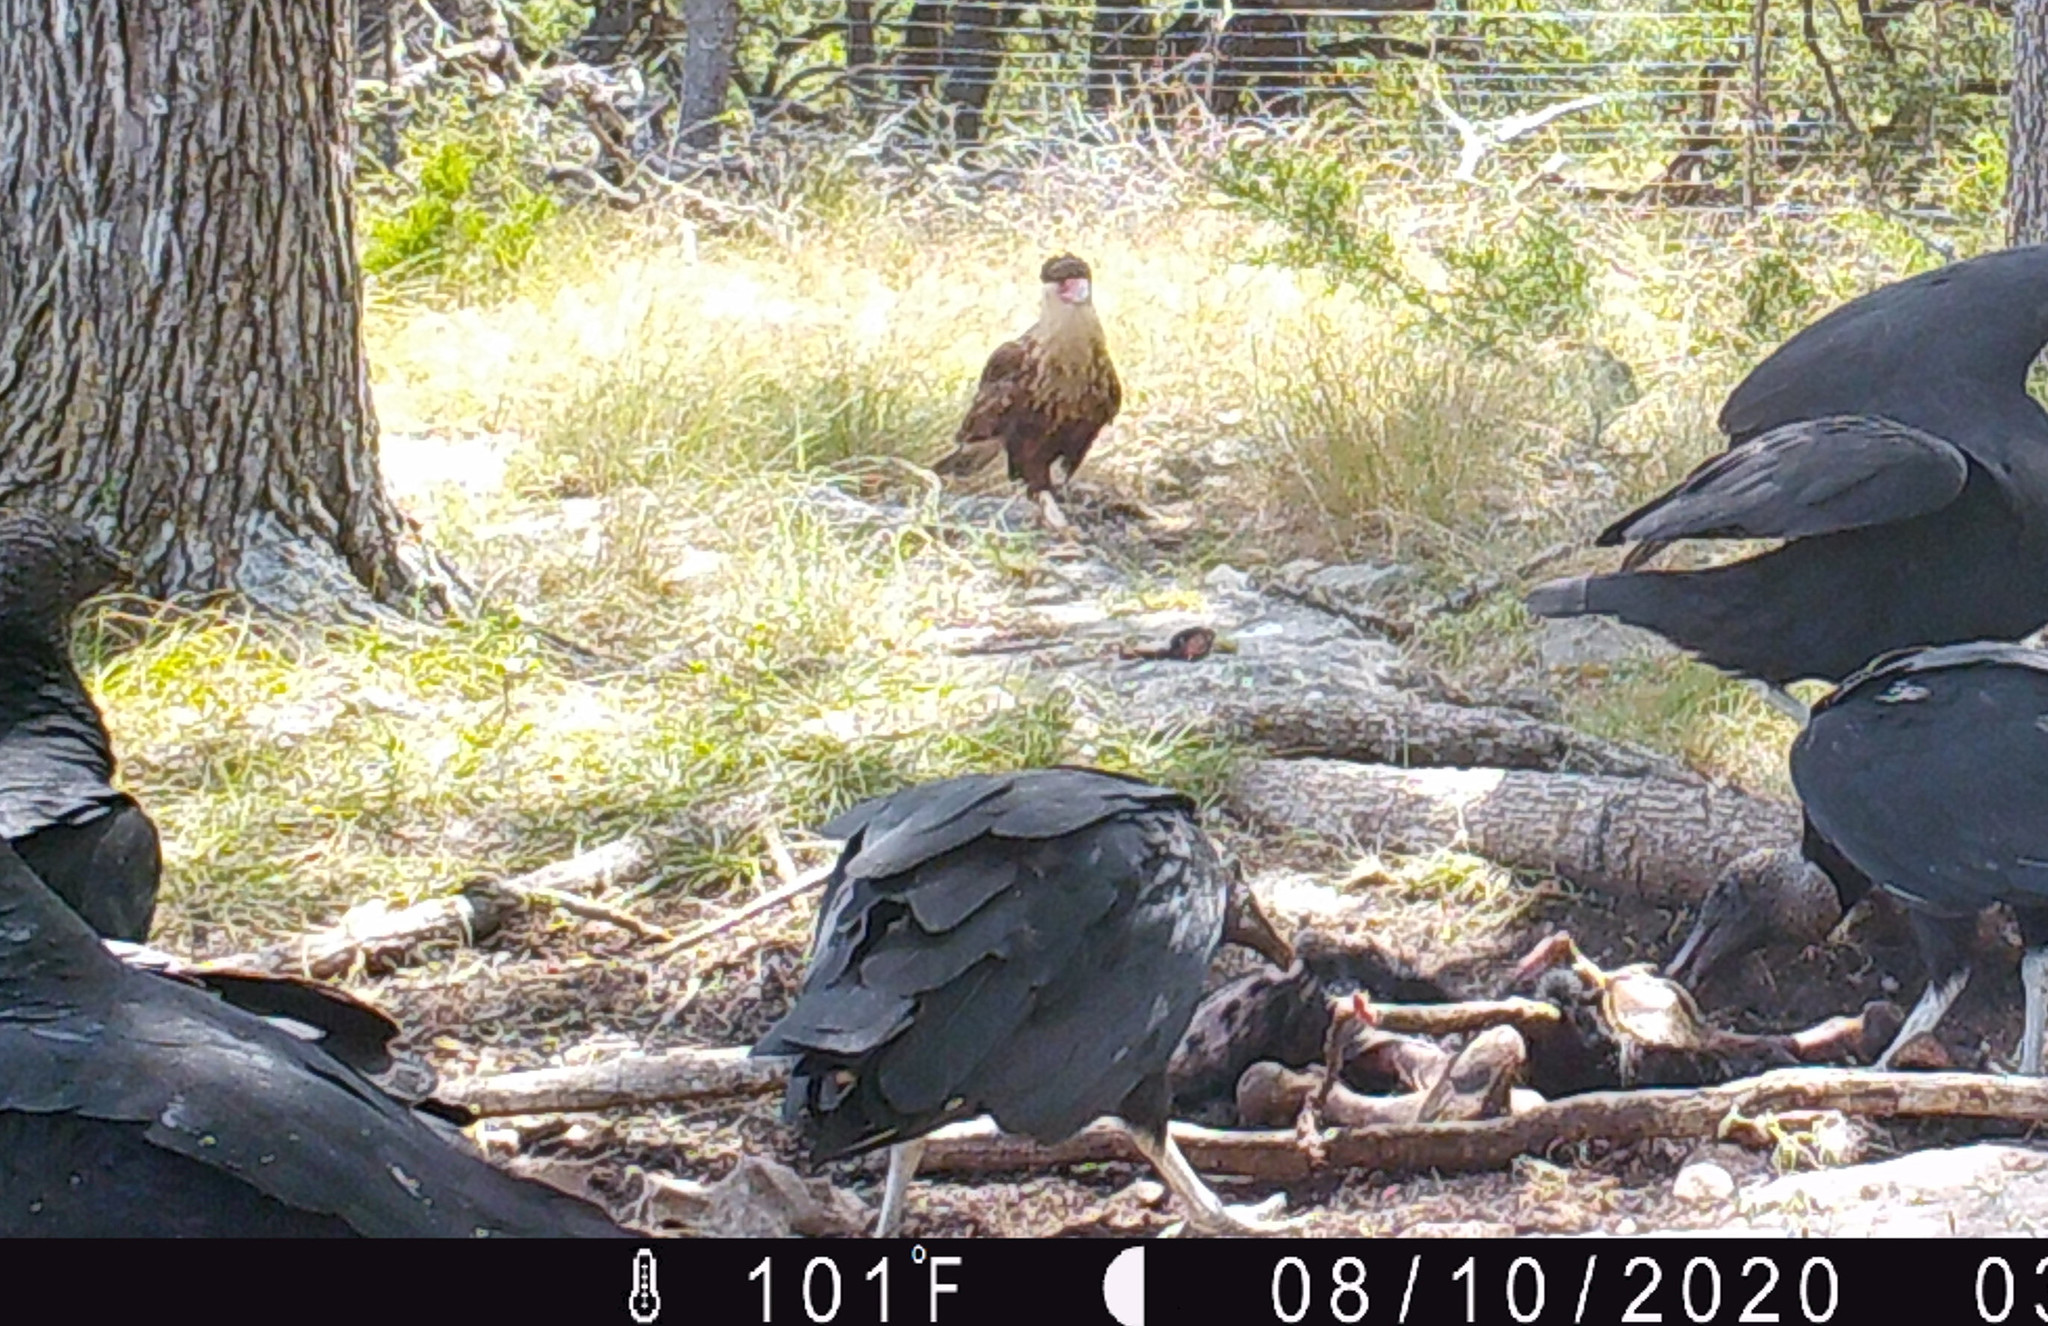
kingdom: Animalia
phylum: Chordata
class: Aves
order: Falconiformes
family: Falconidae
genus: Caracara
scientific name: Caracara plancus
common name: Southern caracara
